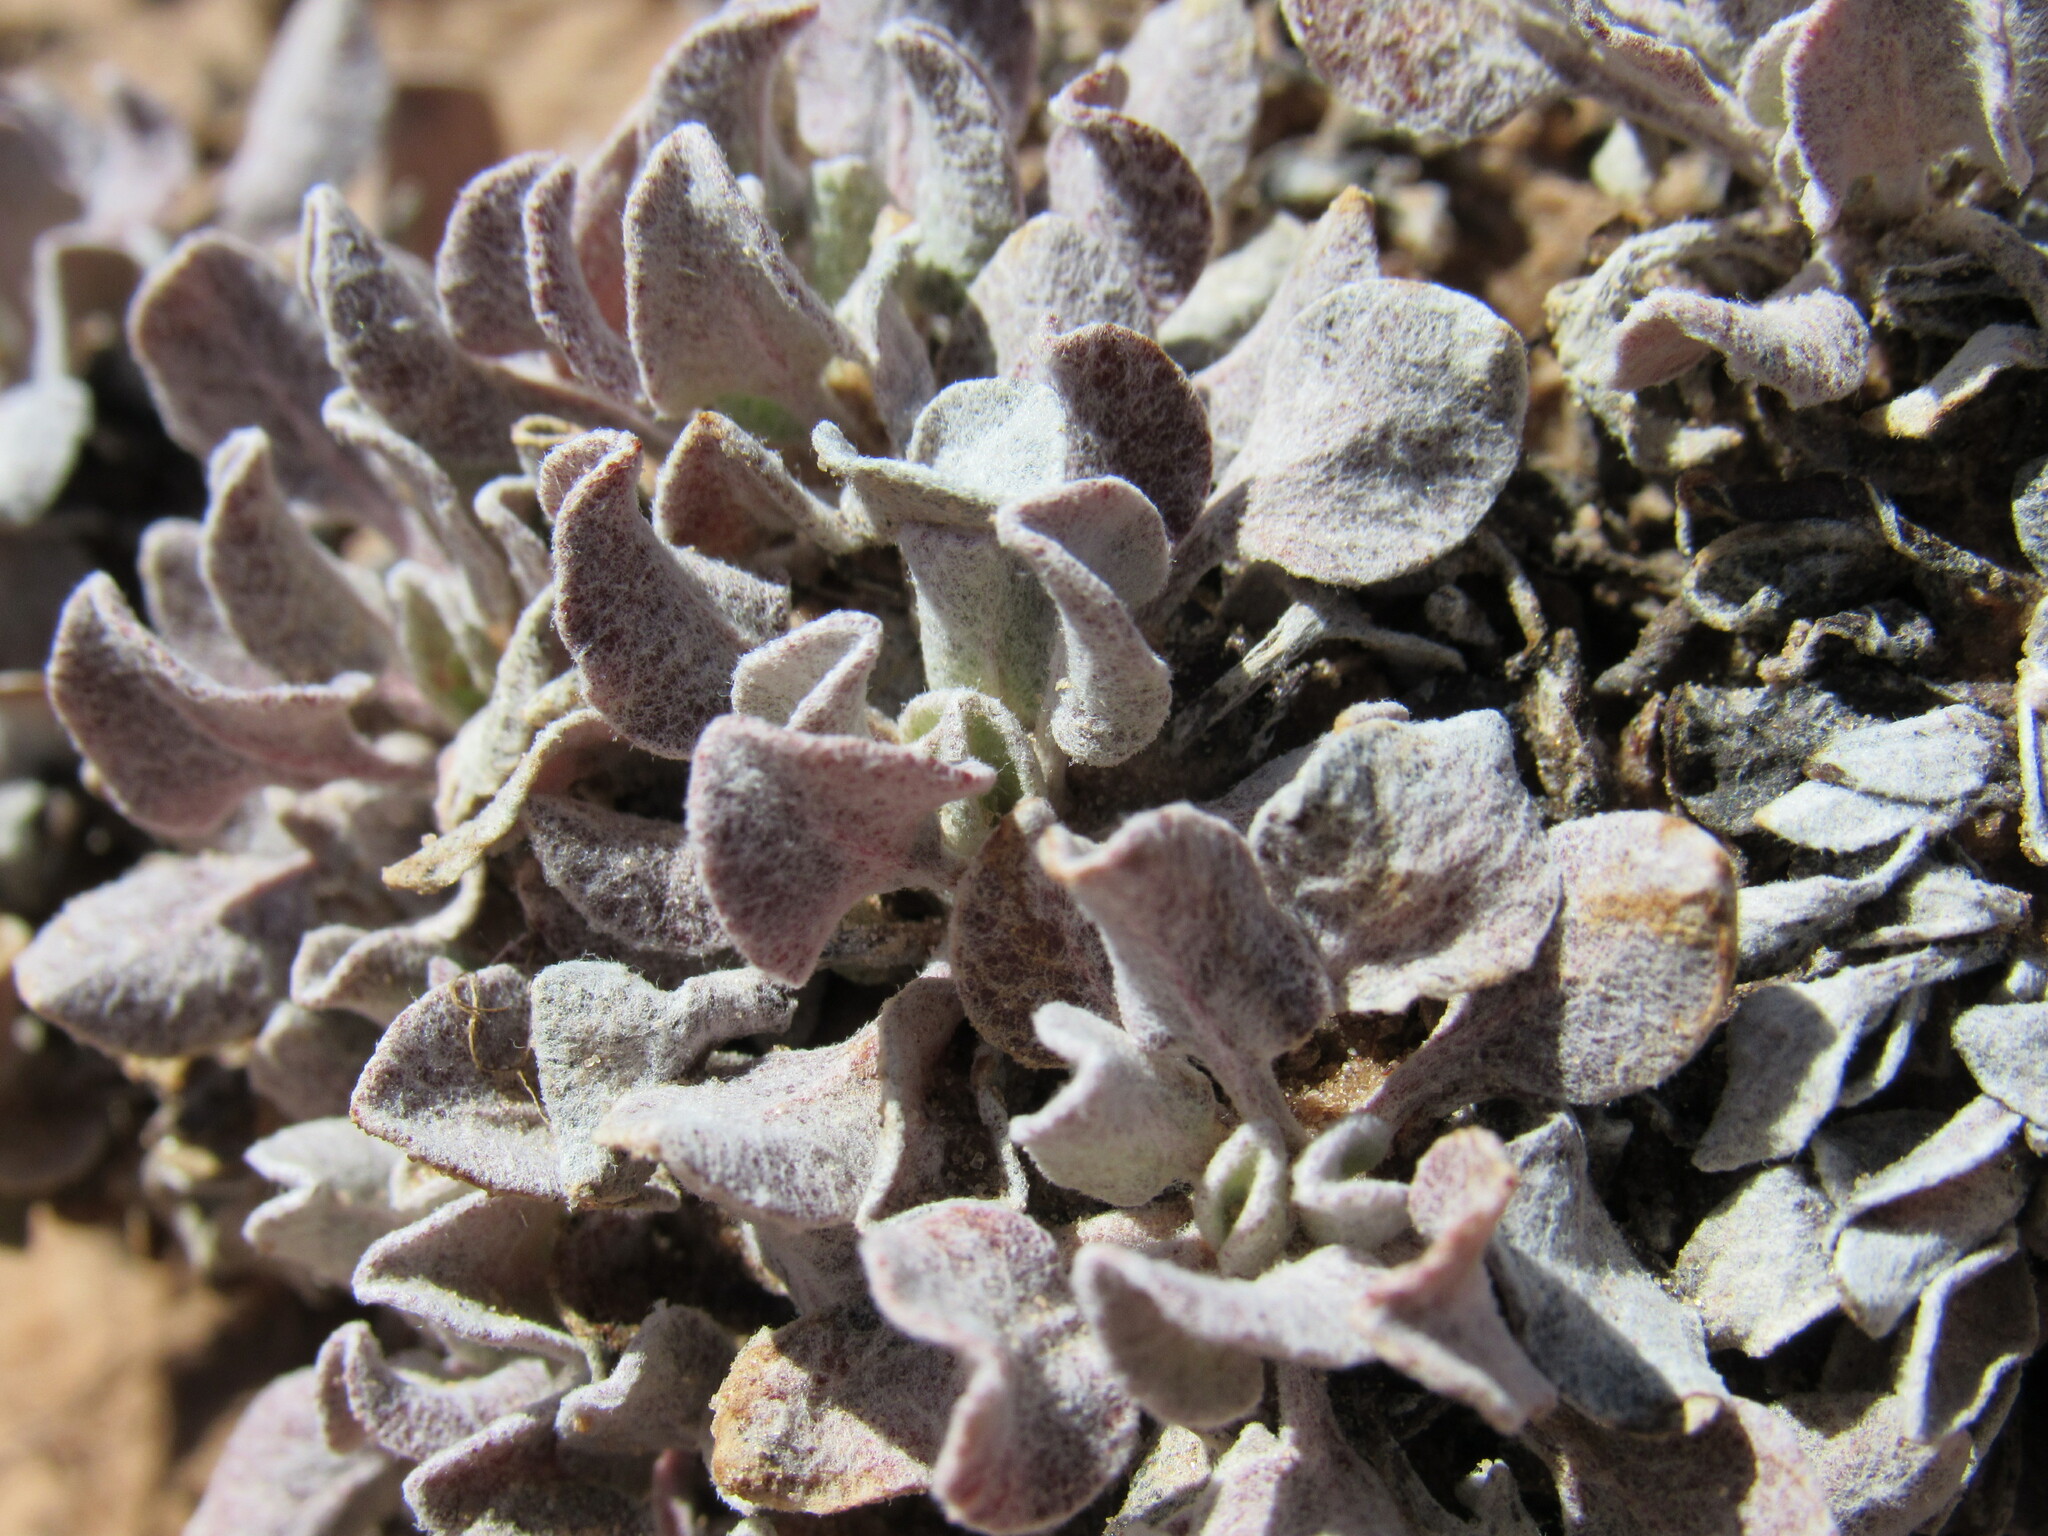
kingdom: Plantae
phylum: Tracheophyta
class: Magnoliopsida
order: Caryophyllales
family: Polygonaceae
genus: Eriogonum
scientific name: Eriogonum ovalifolium
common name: Cushion buckwheat
